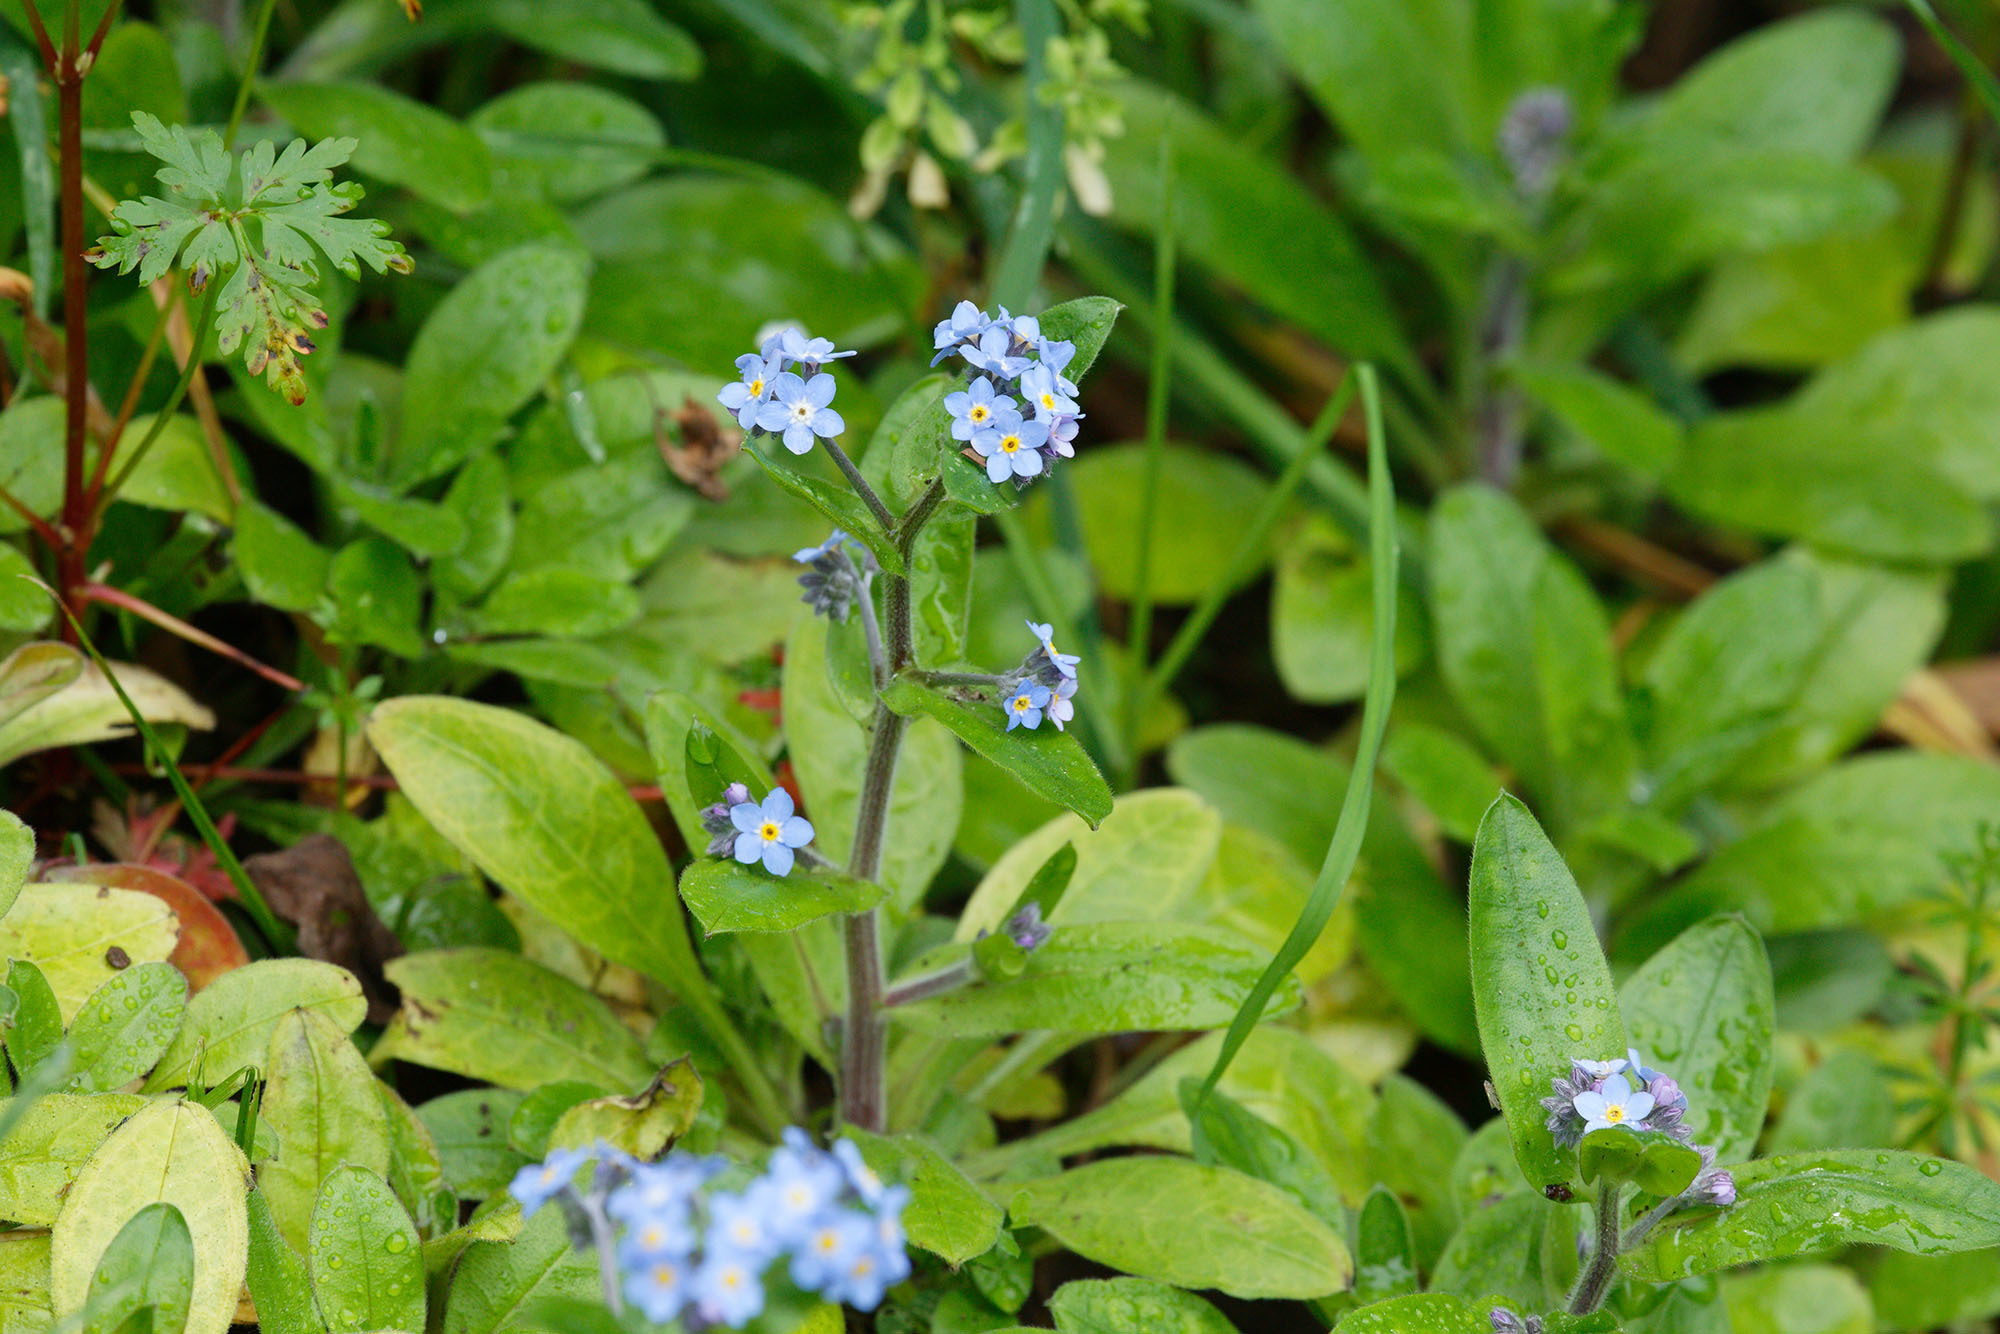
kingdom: Plantae
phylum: Tracheophyta
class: Magnoliopsida
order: Boraginales
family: Boraginaceae
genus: Myosotis
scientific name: Myosotis sylvatica
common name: Wood forget-me-not
